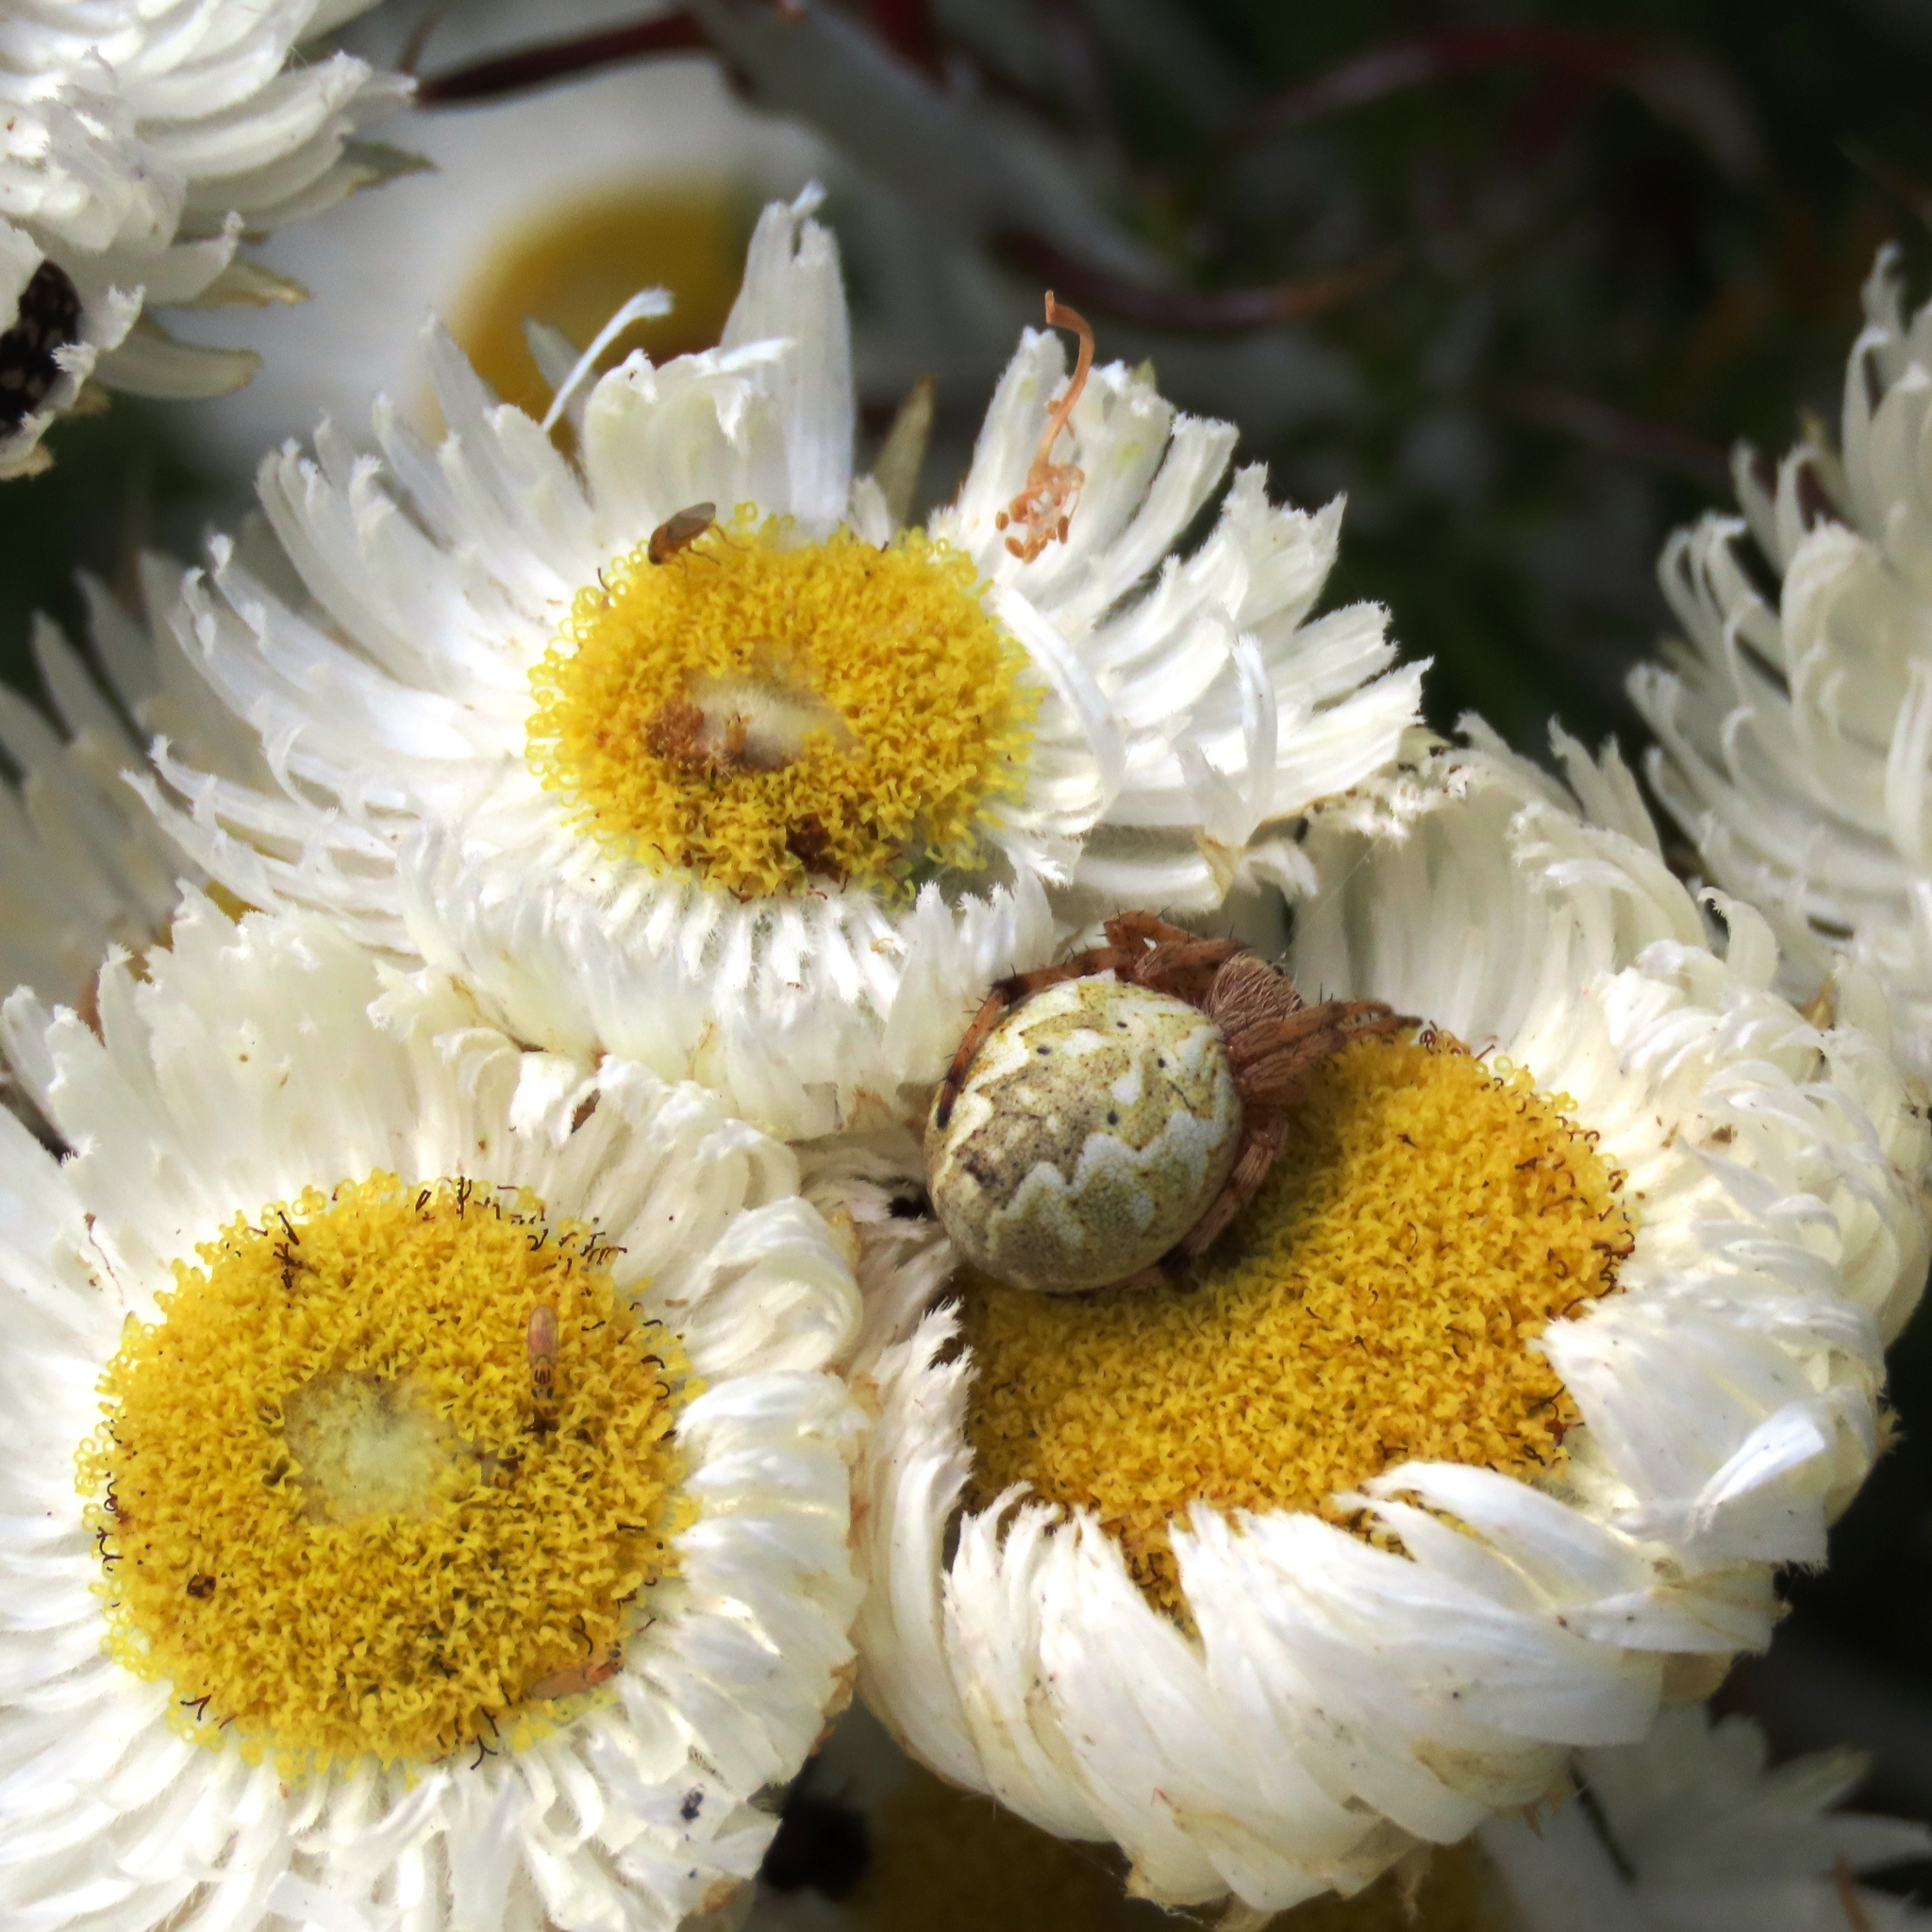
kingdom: Animalia
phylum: Arthropoda
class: Arachnida
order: Araneae
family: Araneidae
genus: Salsa
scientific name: Salsa fuliginata
